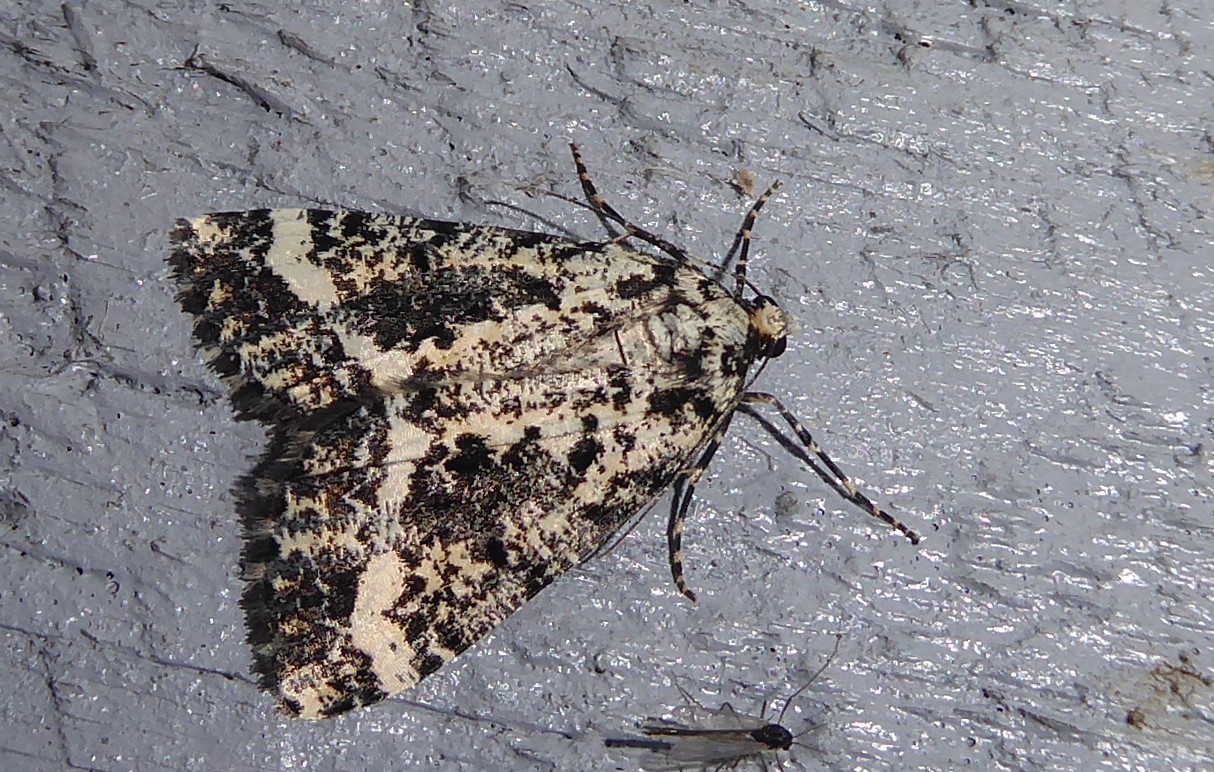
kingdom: Animalia
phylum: Arthropoda
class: Insecta
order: Lepidoptera
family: Geometridae
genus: Pseudocoremia
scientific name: Pseudocoremia leucelaea
